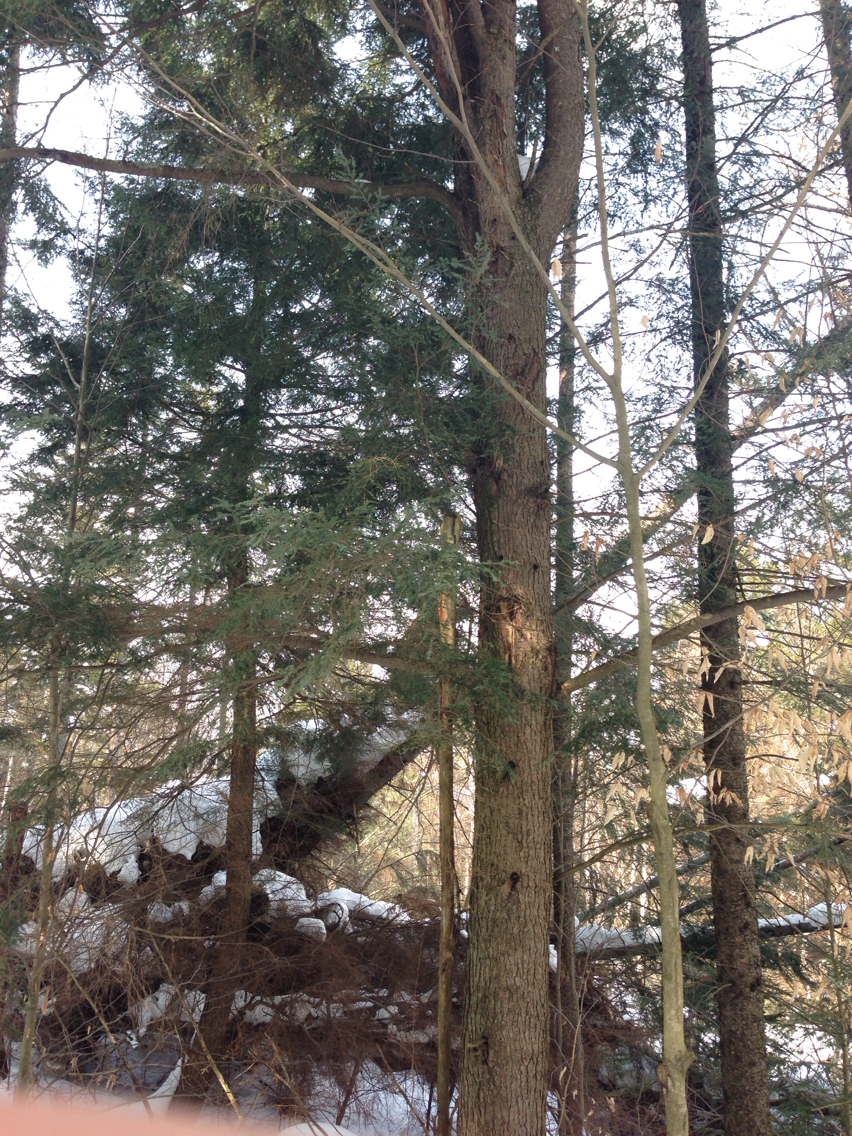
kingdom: Plantae
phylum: Tracheophyta
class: Pinopsida
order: Pinales
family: Pinaceae
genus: Tsuga
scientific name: Tsuga canadensis
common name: Eastern hemlock
